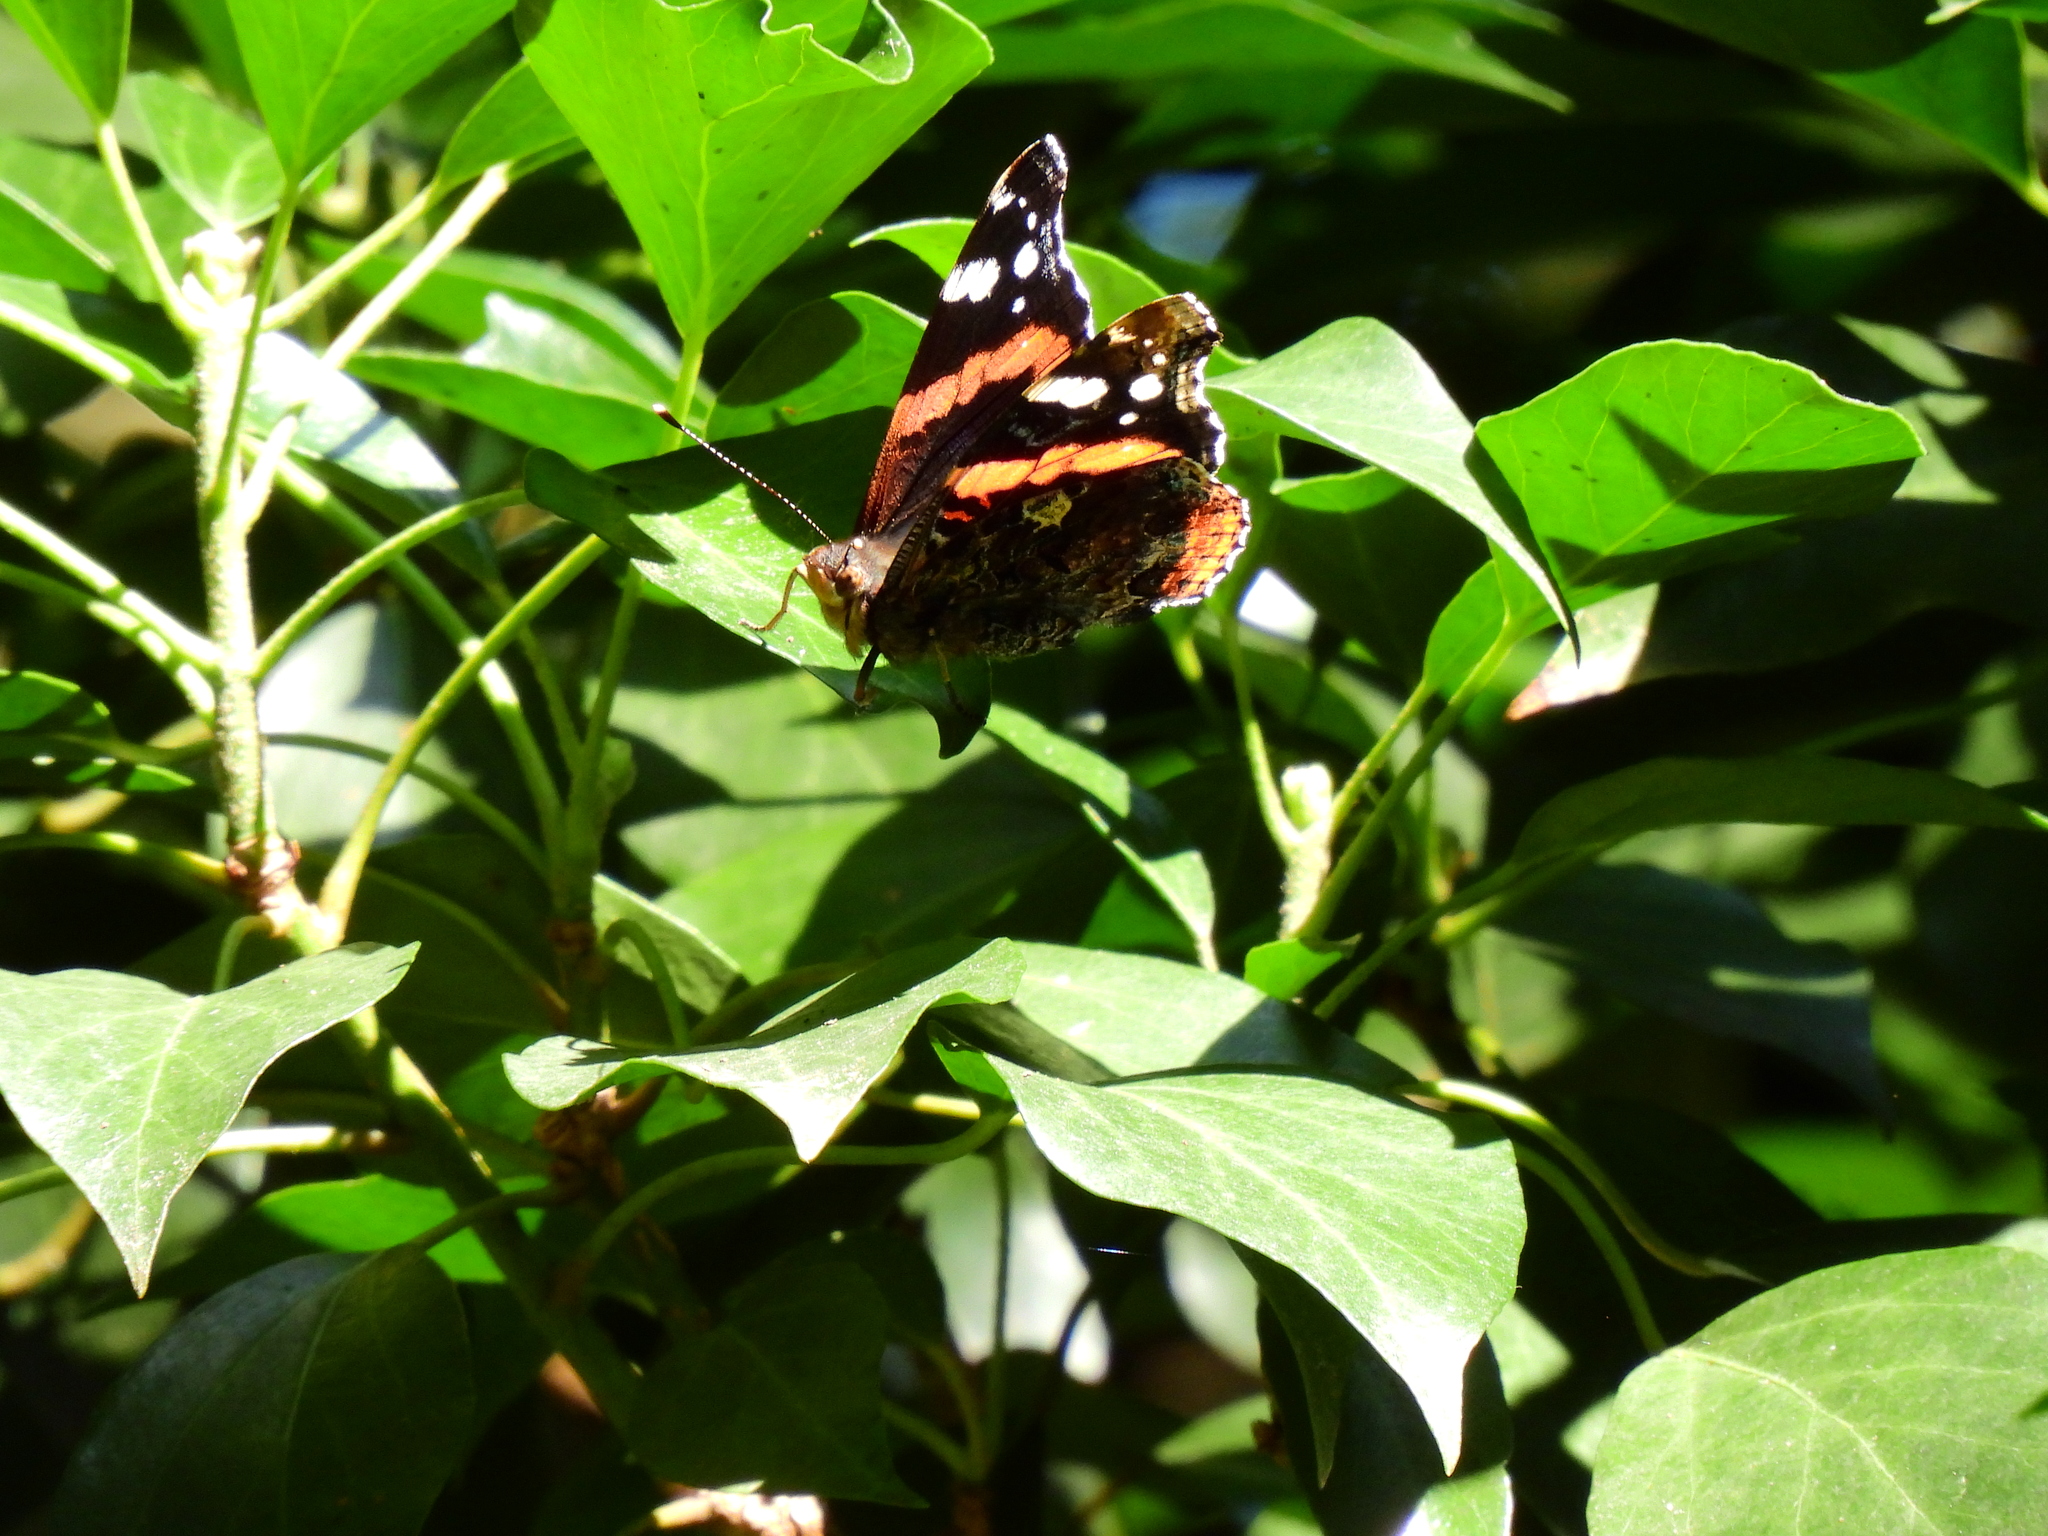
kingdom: Animalia
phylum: Arthropoda
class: Insecta
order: Lepidoptera
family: Nymphalidae
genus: Vanessa
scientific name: Vanessa atalanta
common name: Red admiral
